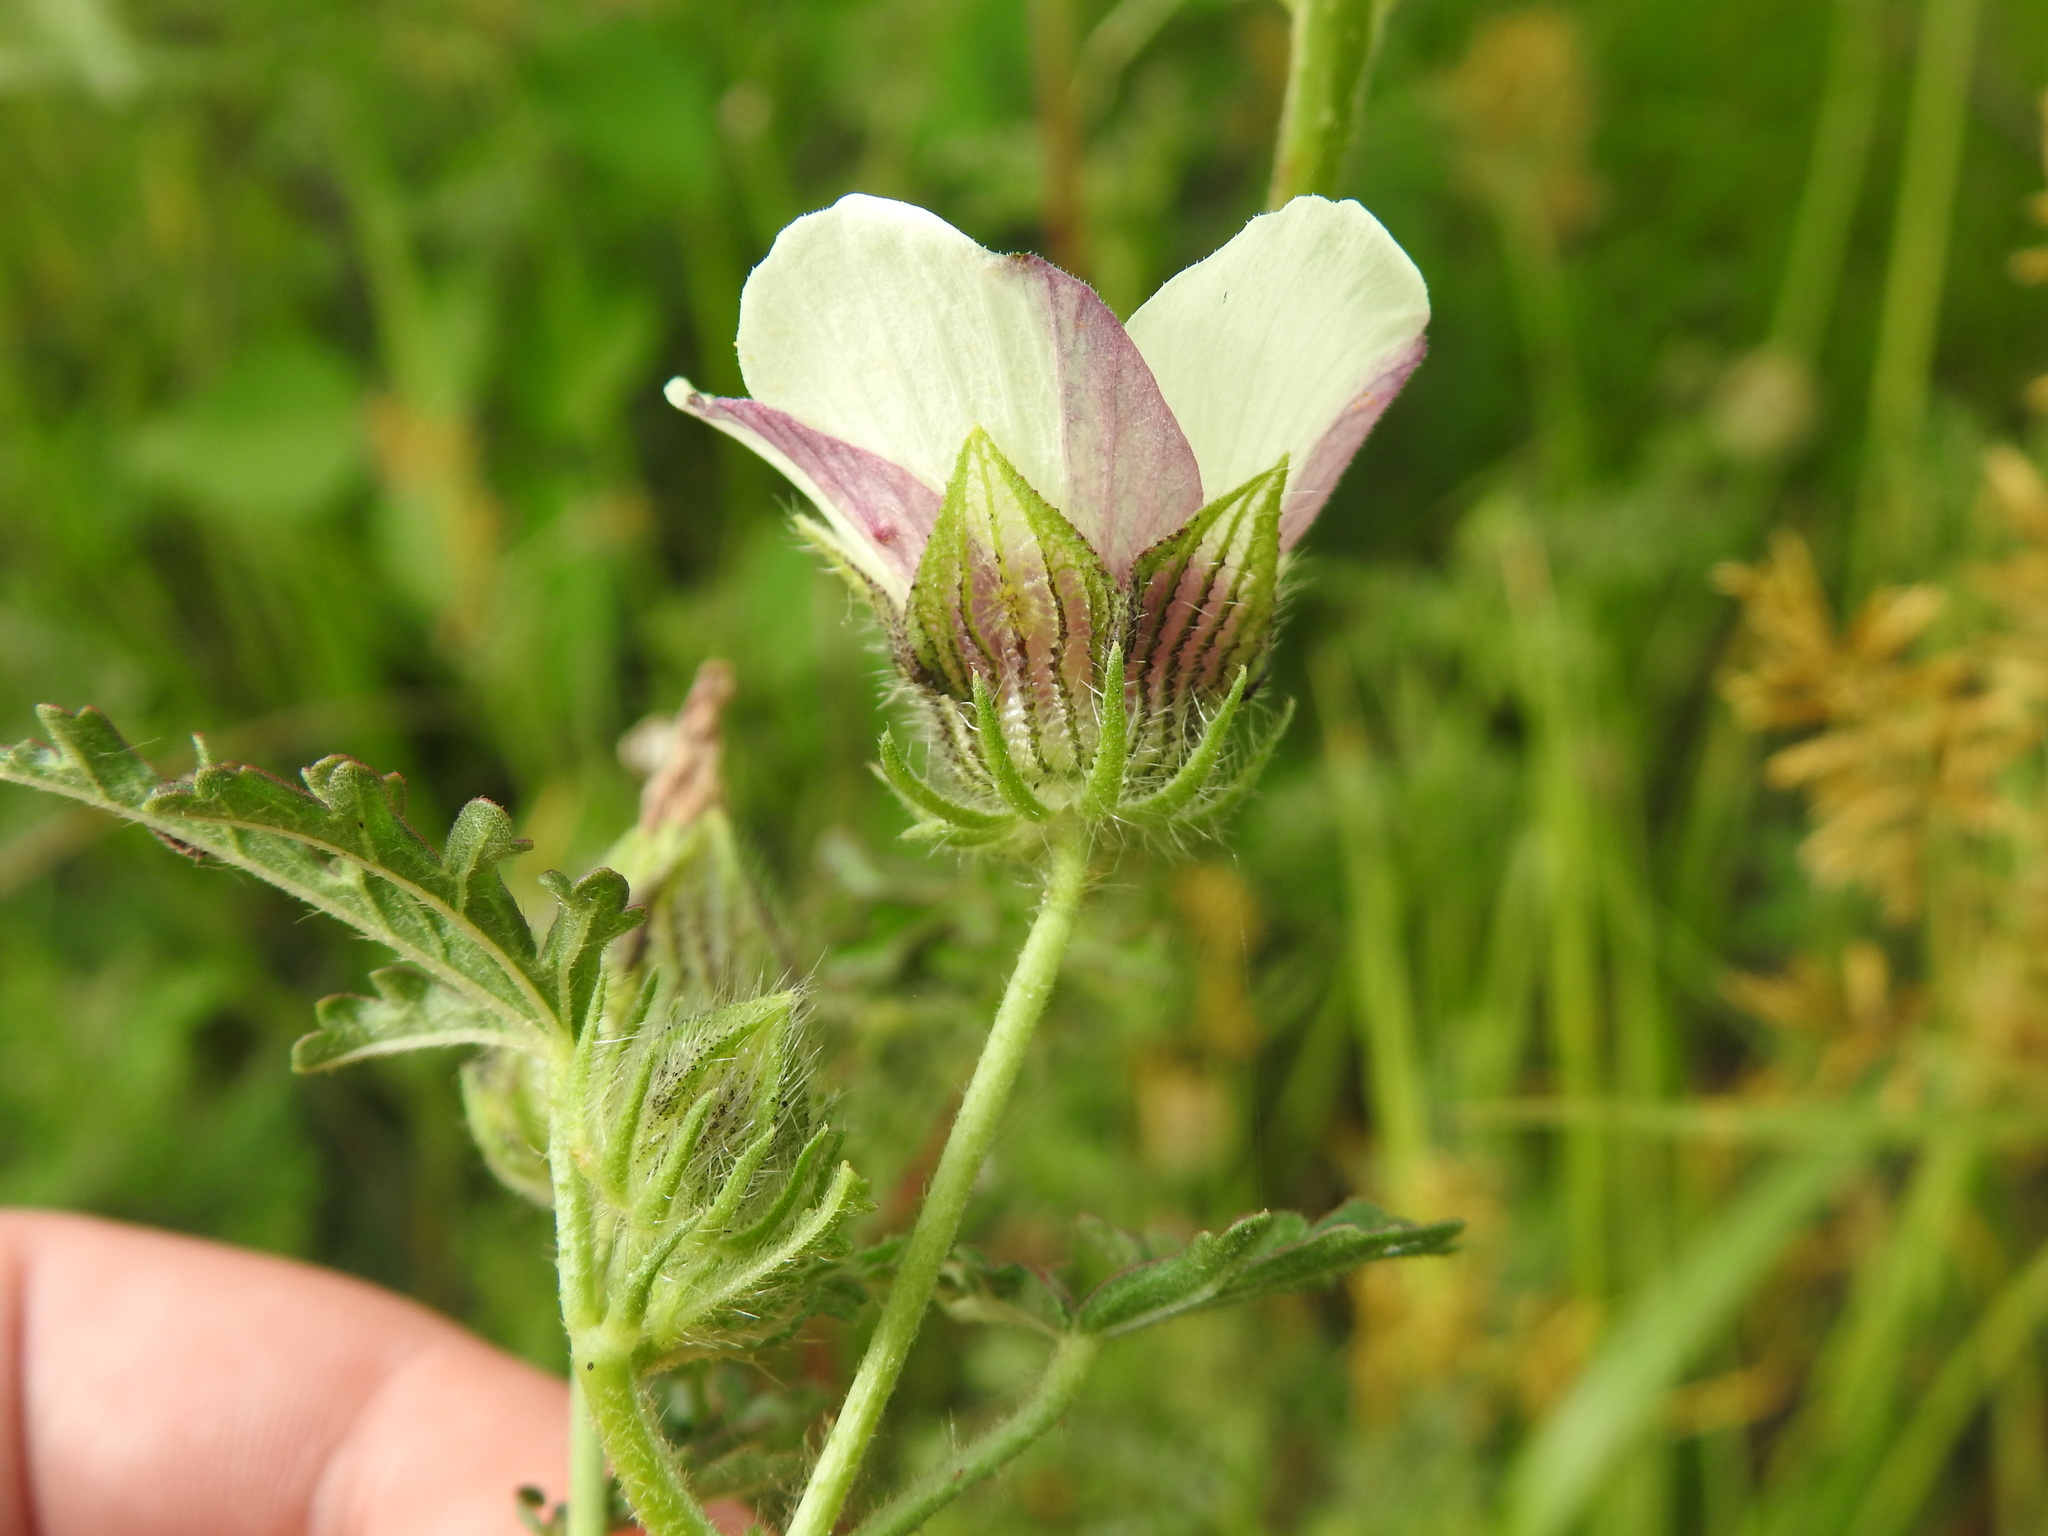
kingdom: Plantae
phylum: Tracheophyta
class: Magnoliopsida
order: Malvales
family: Malvaceae
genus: Hibiscus
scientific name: Hibiscus trionum
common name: Bladder ketmia
